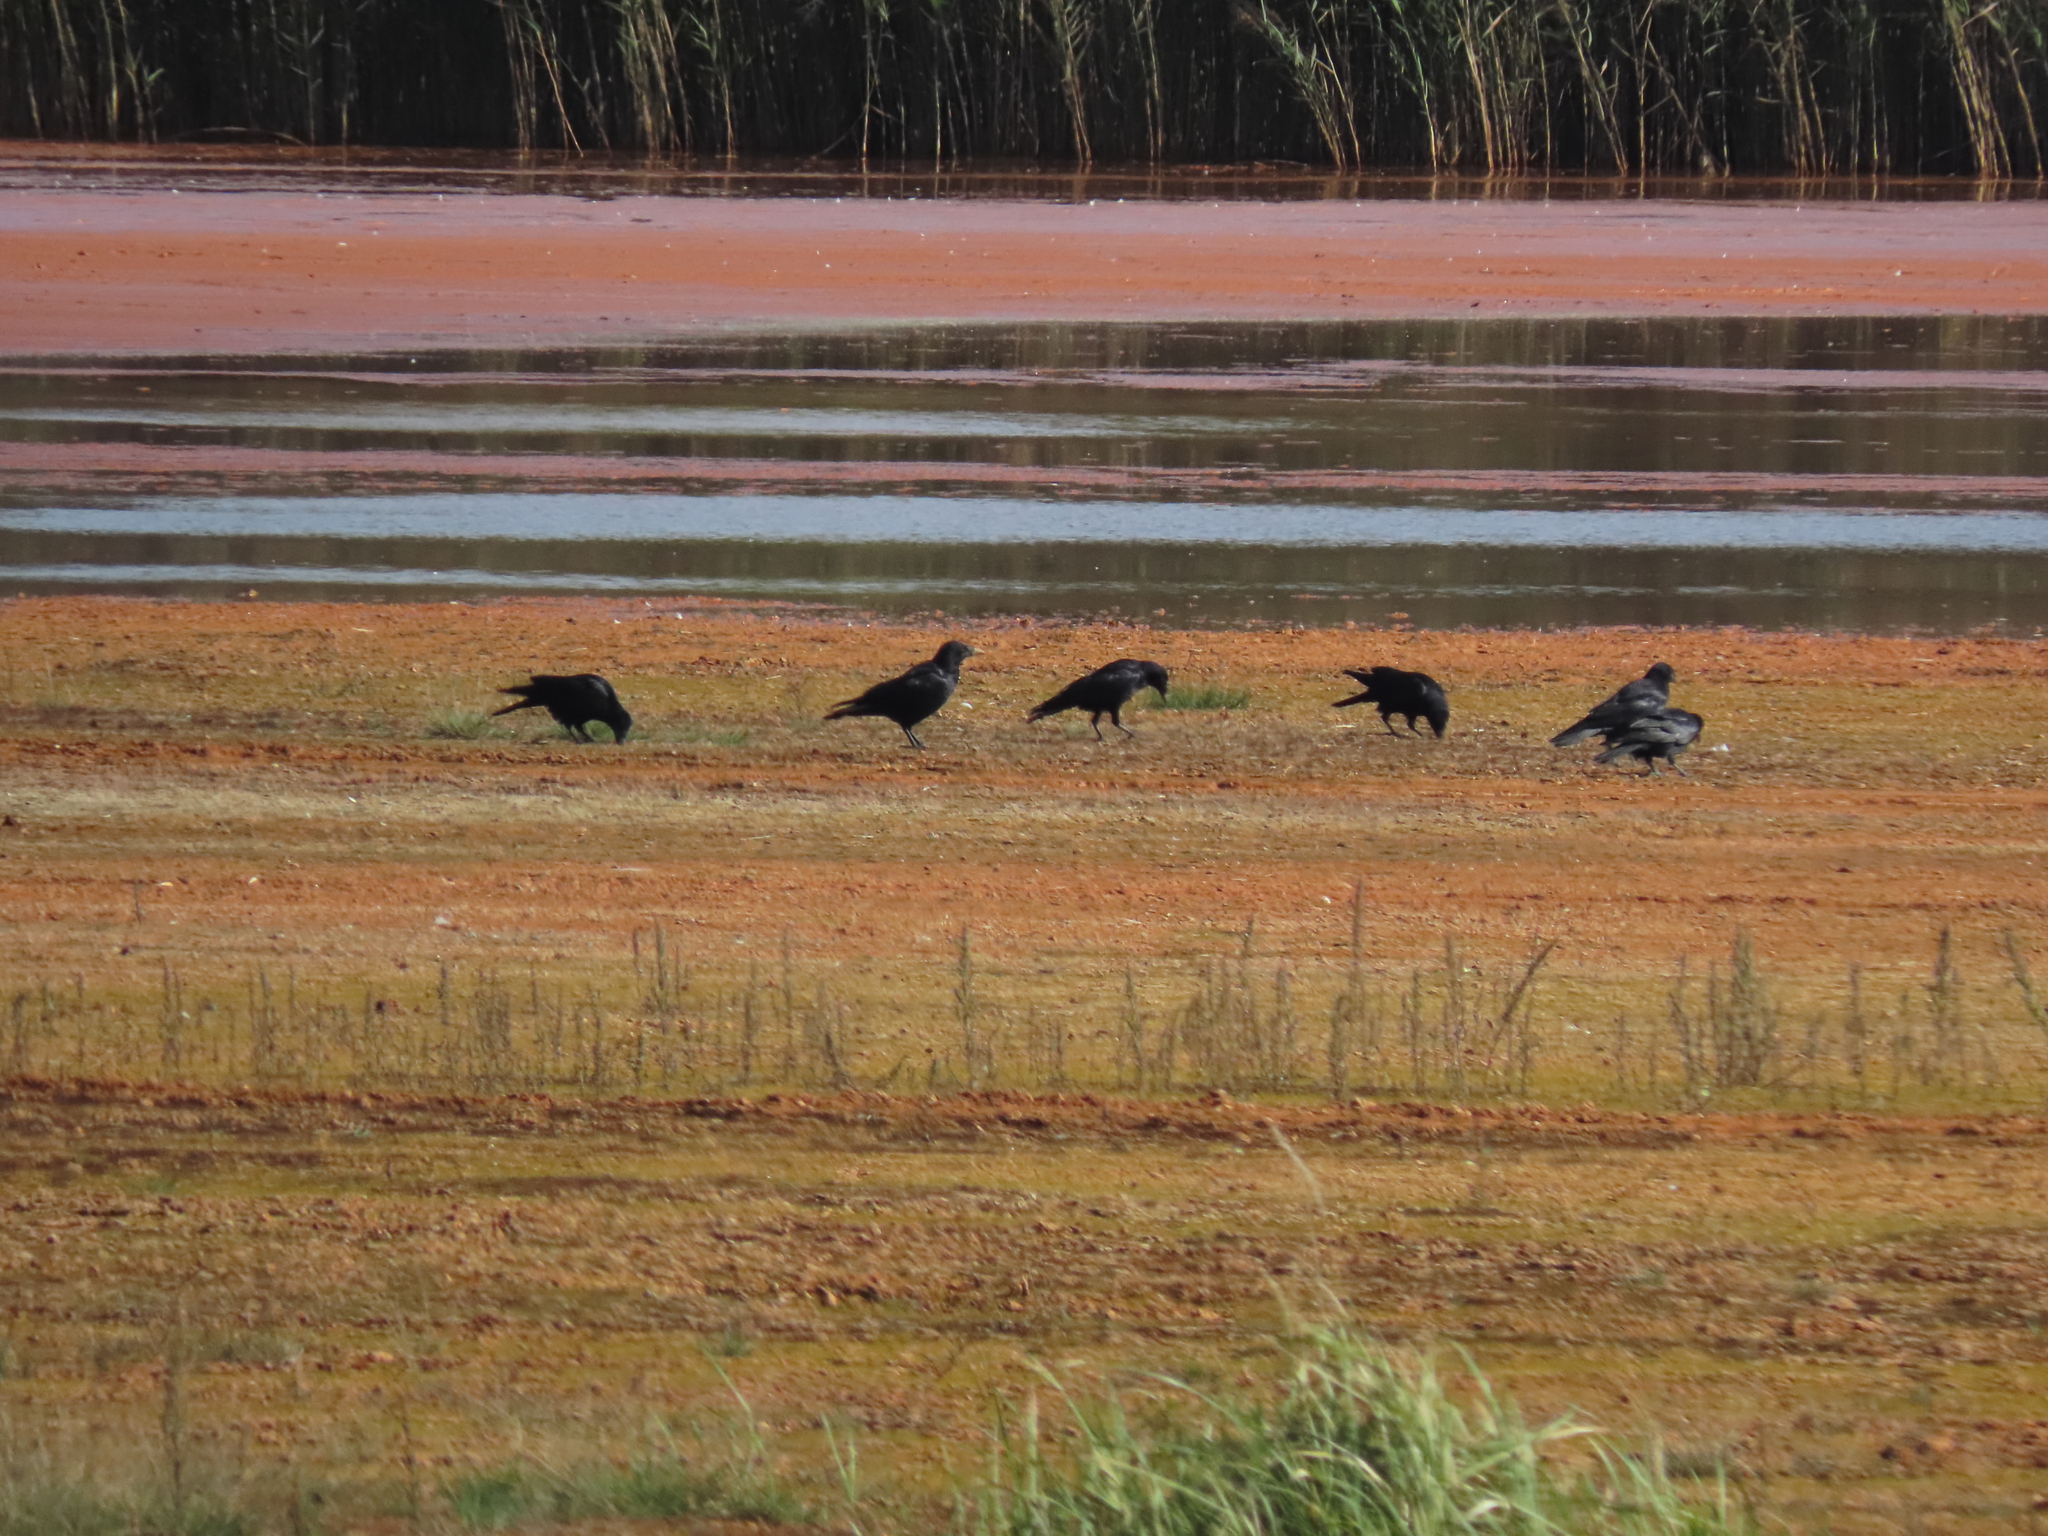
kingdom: Animalia
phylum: Chordata
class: Aves
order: Passeriformes
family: Corvidae
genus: Corvus
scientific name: Corvus frugilegus
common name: Rook
